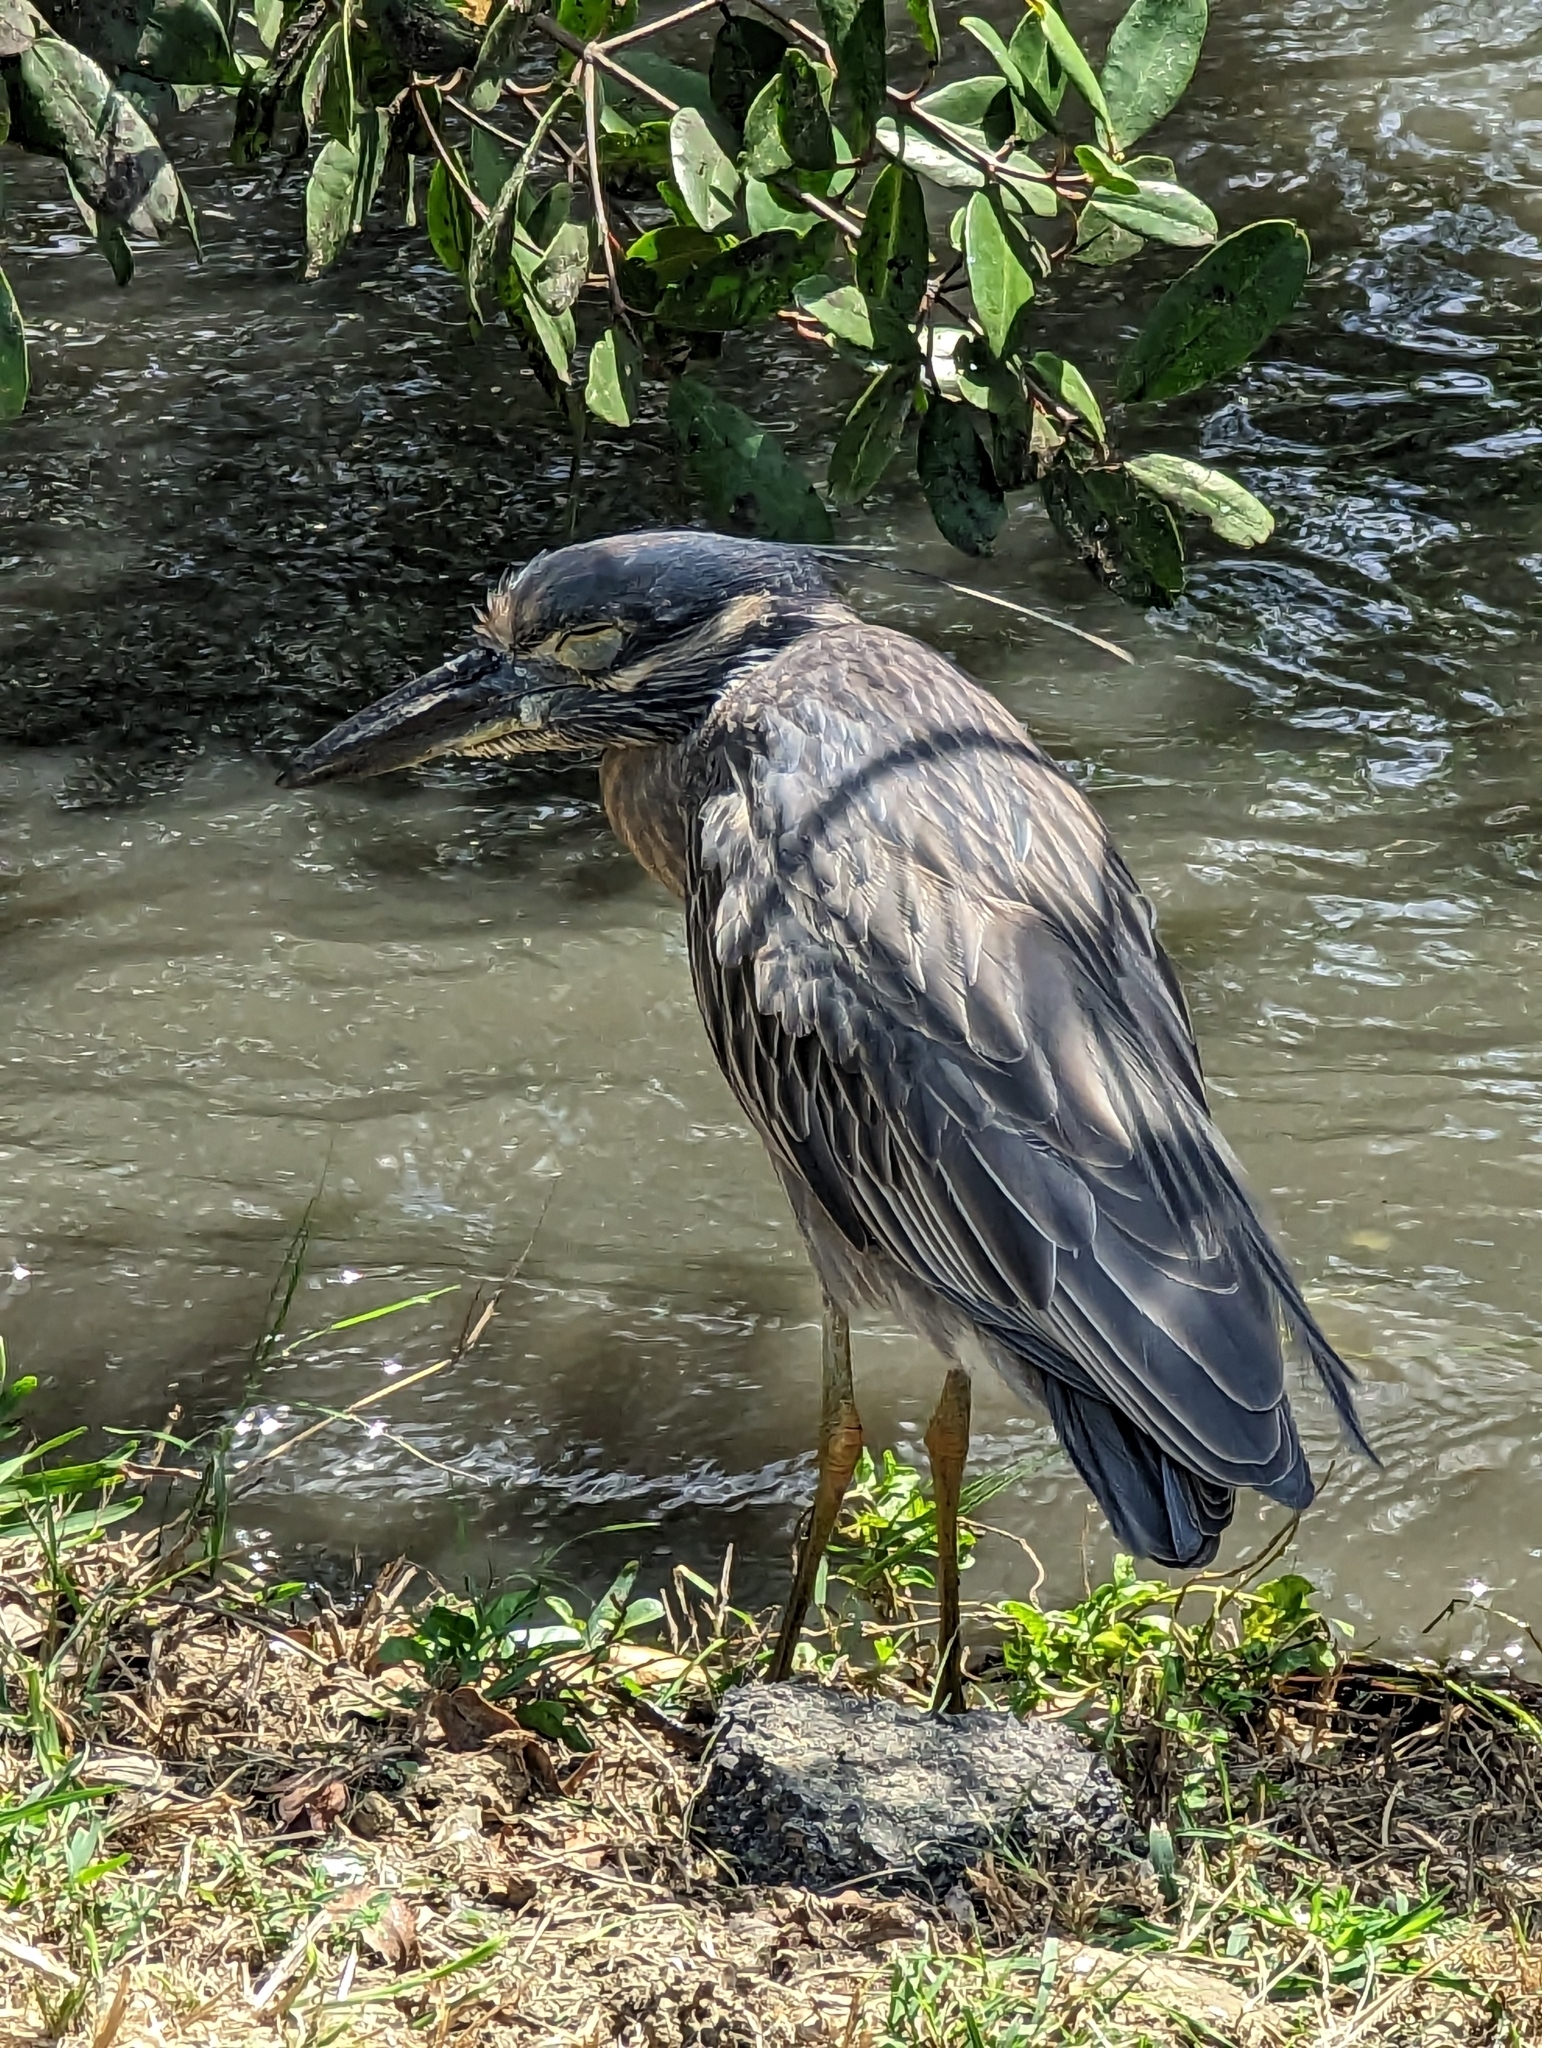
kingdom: Animalia
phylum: Chordata
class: Aves
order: Pelecaniformes
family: Ardeidae
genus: Nyctanassa
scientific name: Nyctanassa violacea
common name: Yellow-crowned night heron
